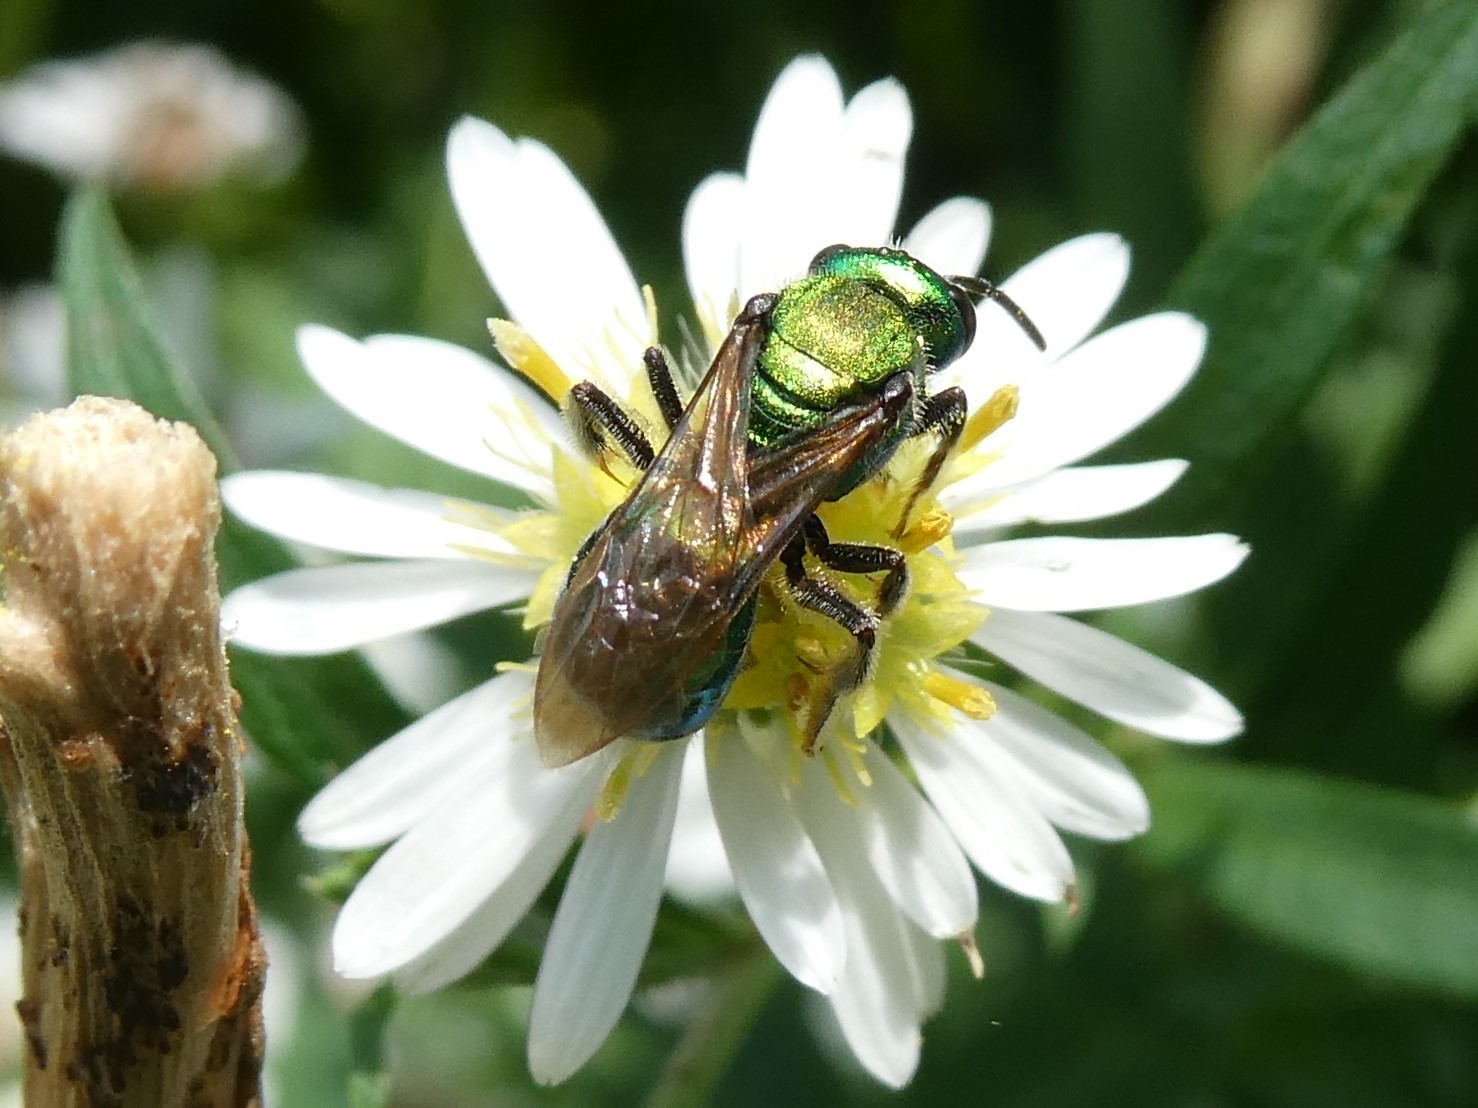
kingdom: Animalia
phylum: Arthropoda
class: Insecta
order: Hymenoptera
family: Halictidae
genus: Augochlora
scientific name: Augochlora pura
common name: Pure green sweat bee
